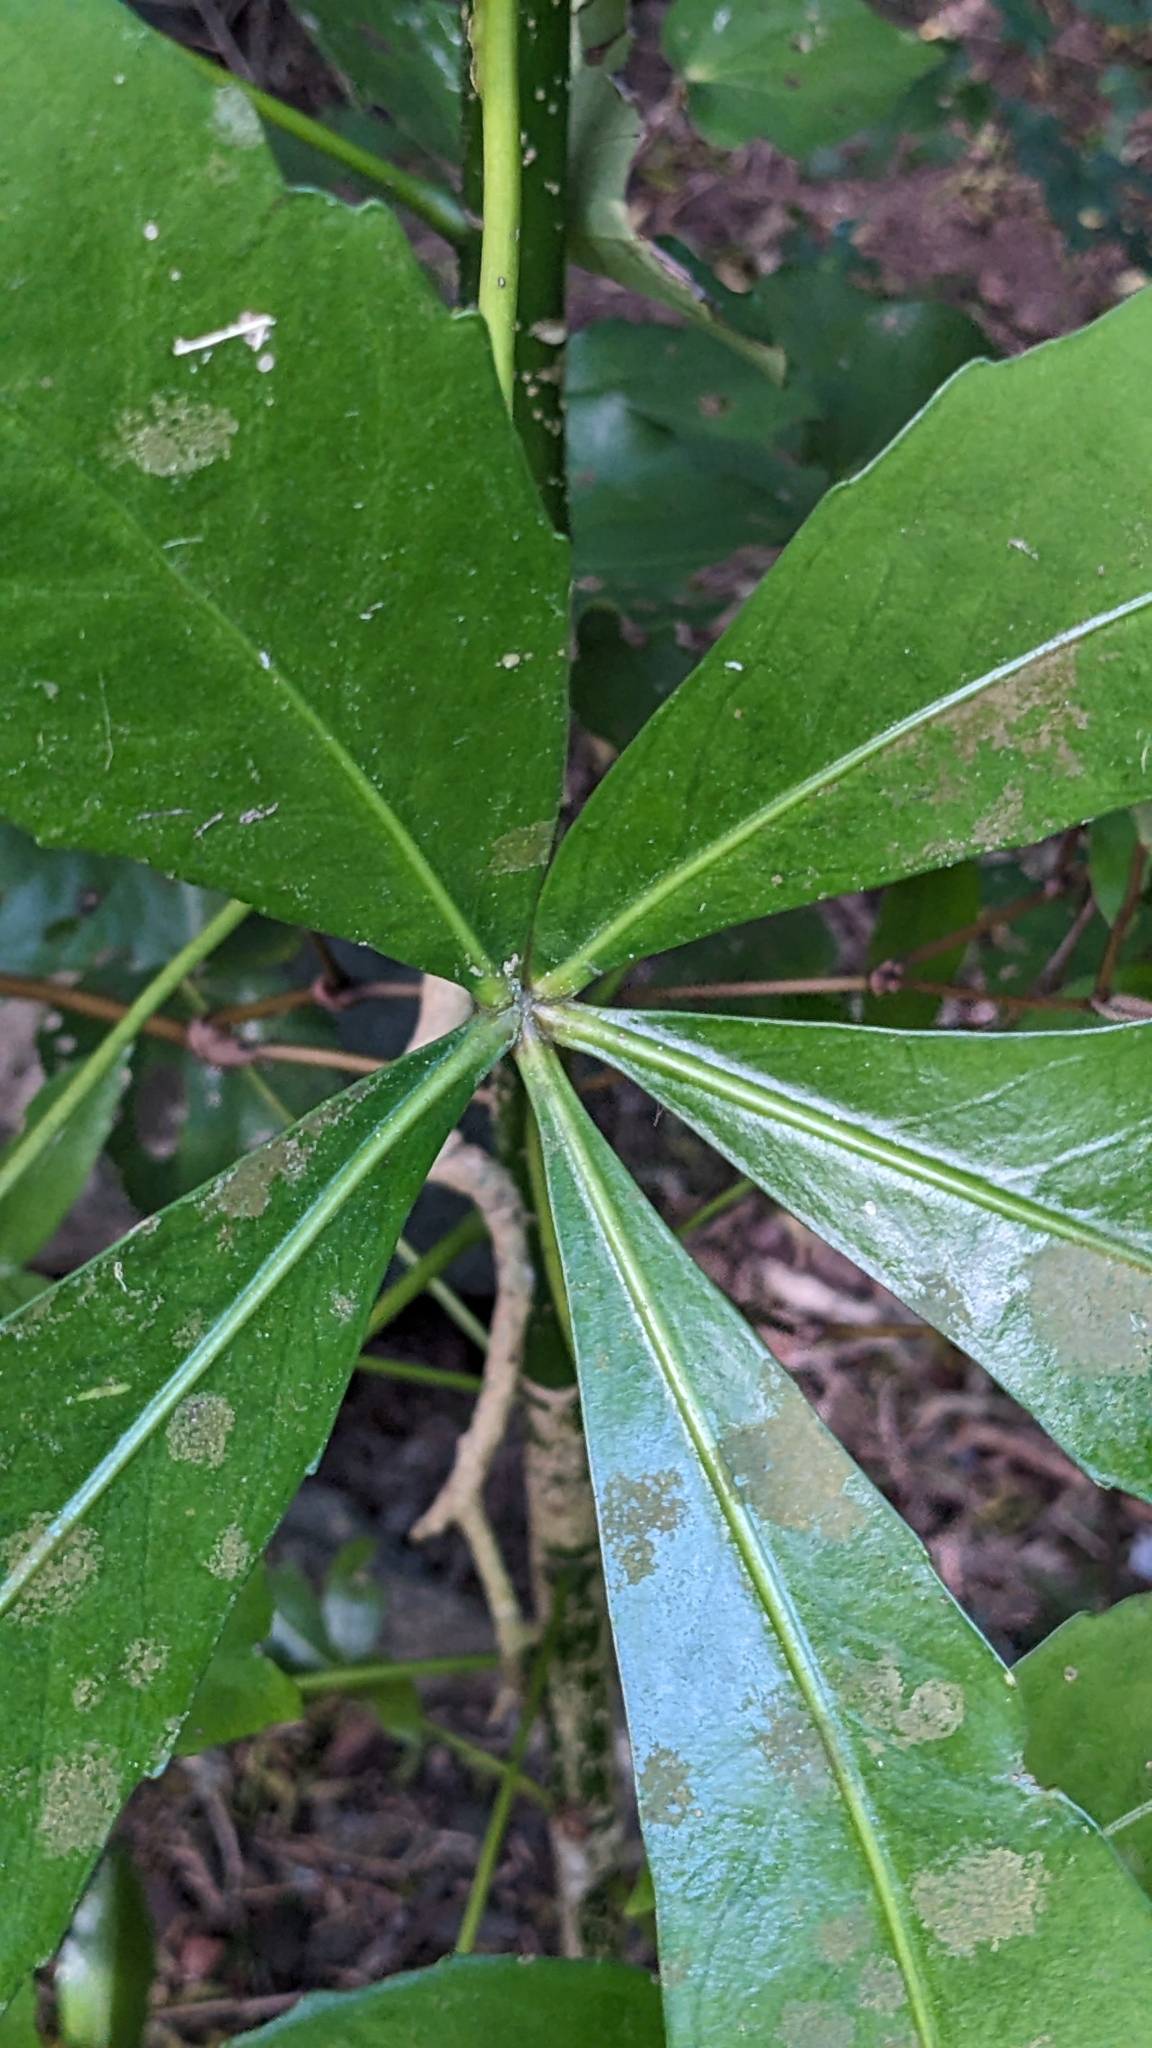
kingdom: Plantae
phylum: Tracheophyta
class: Magnoliopsida
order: Apiales
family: Araliaceae
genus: Pseudopanax
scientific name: Pseudopanax
